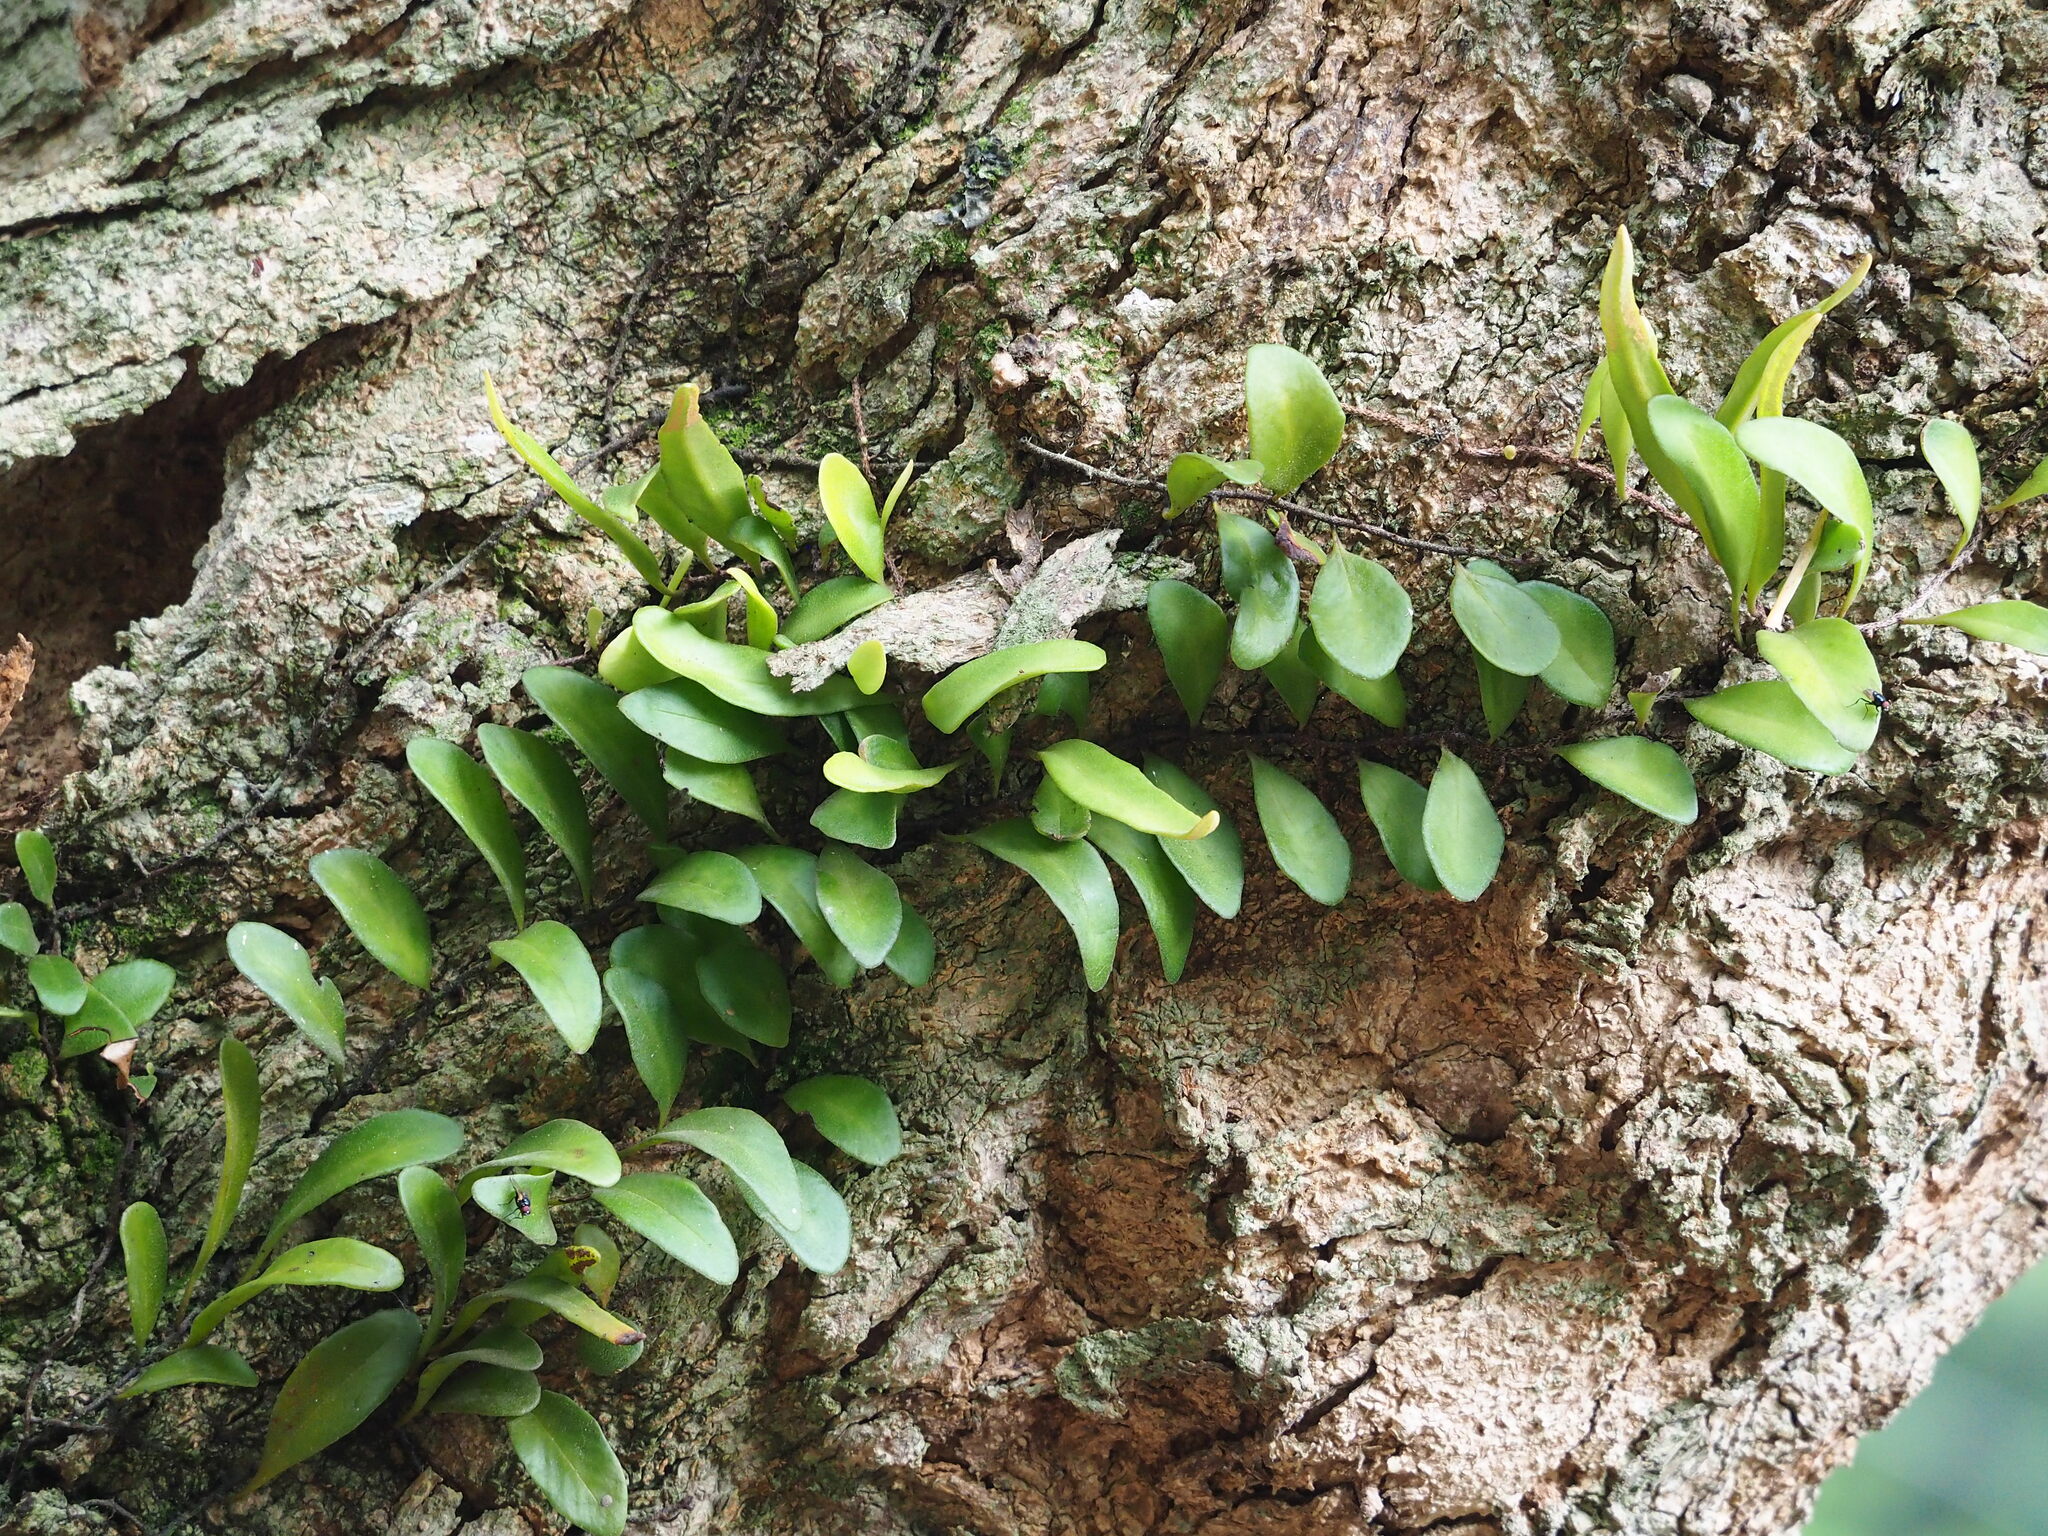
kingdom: Plantae
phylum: Tracheophyta
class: Polypodiopsida
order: Polypodiales
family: Polypodiaceae
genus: Pyrrosia
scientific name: Pyrrosia lanceolata
